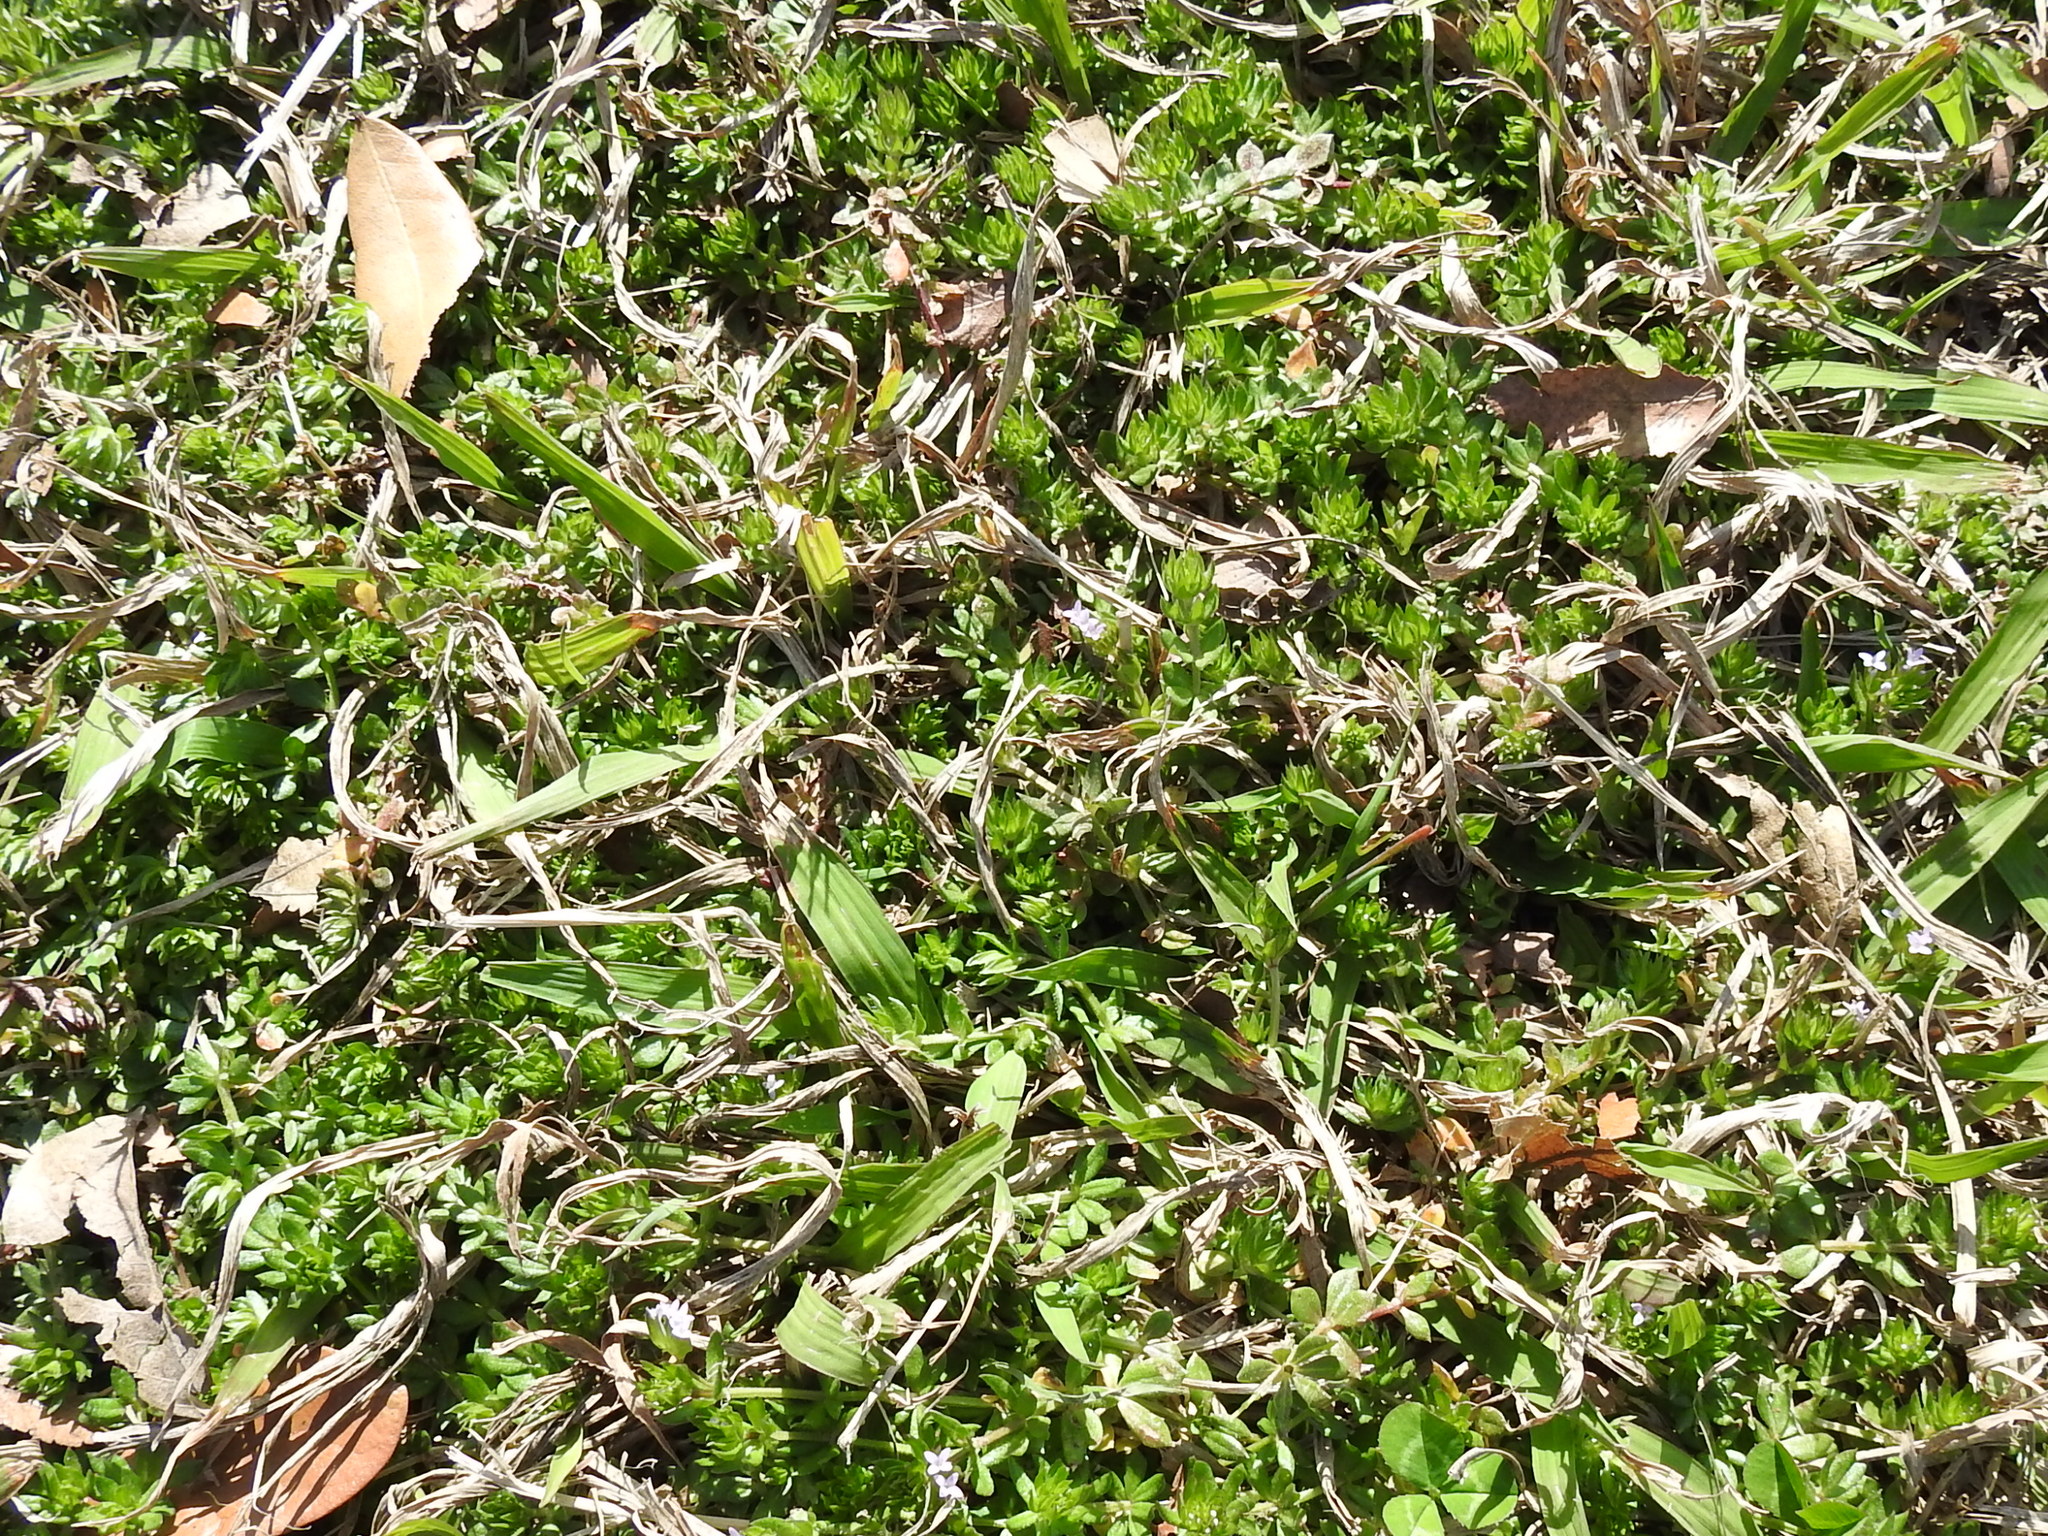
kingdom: Plantae
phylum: Tracheophyta
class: Magnoliopsida
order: Gentianales
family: Rubiaceae
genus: Sherardia
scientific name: Sherardia arvensis
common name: Field madder
